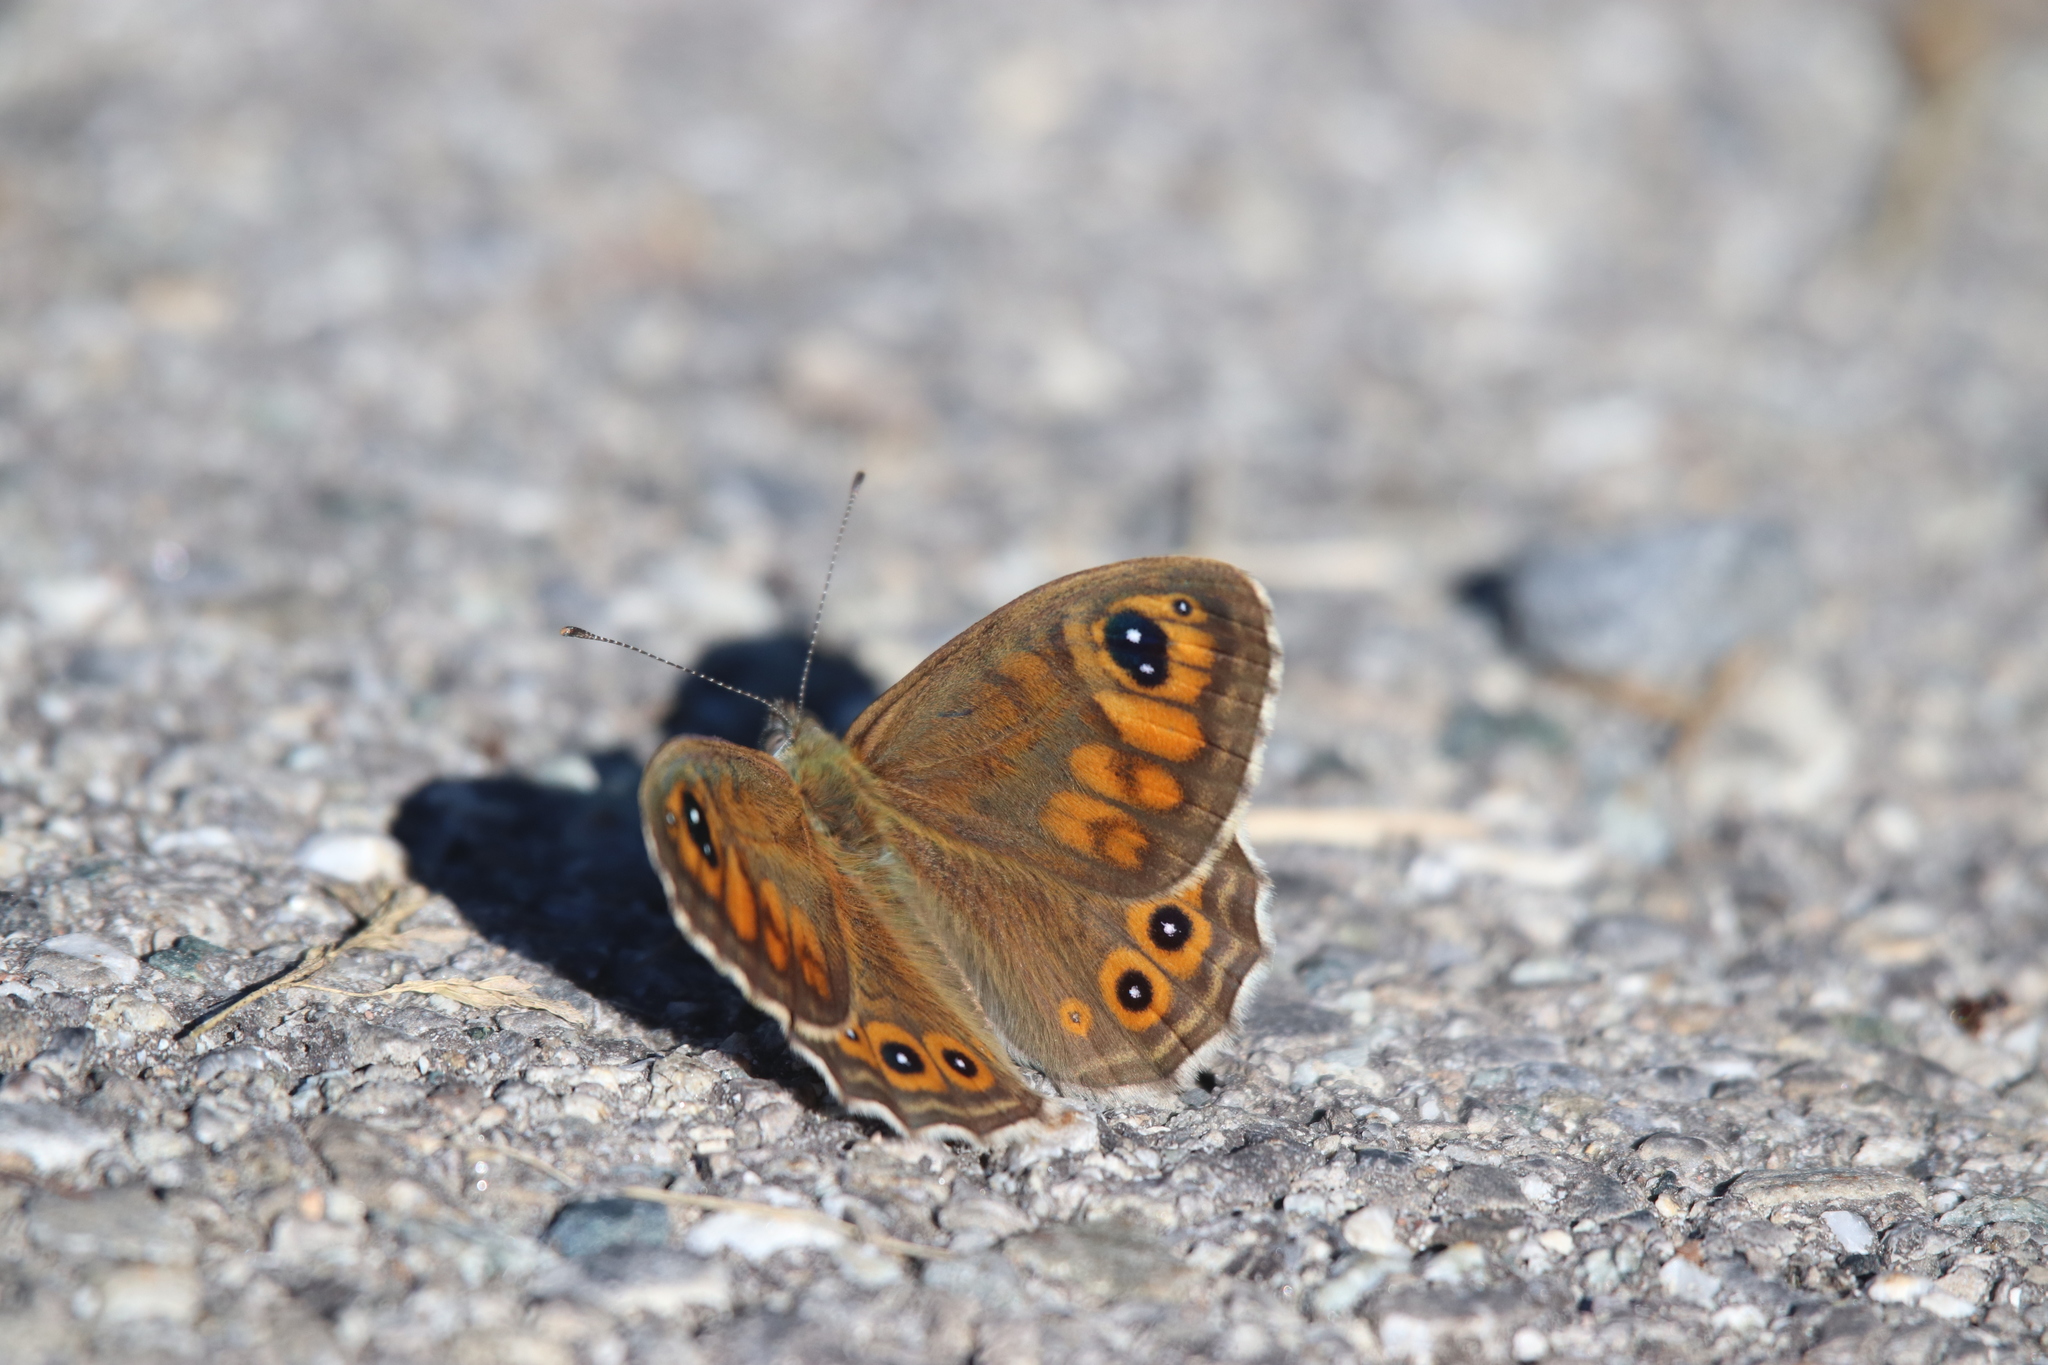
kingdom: Animalia
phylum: Arthropoda
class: Insecta
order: Lepidoptera
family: Nymphalidae
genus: Pararge
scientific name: Pararge Lasiommata maera
